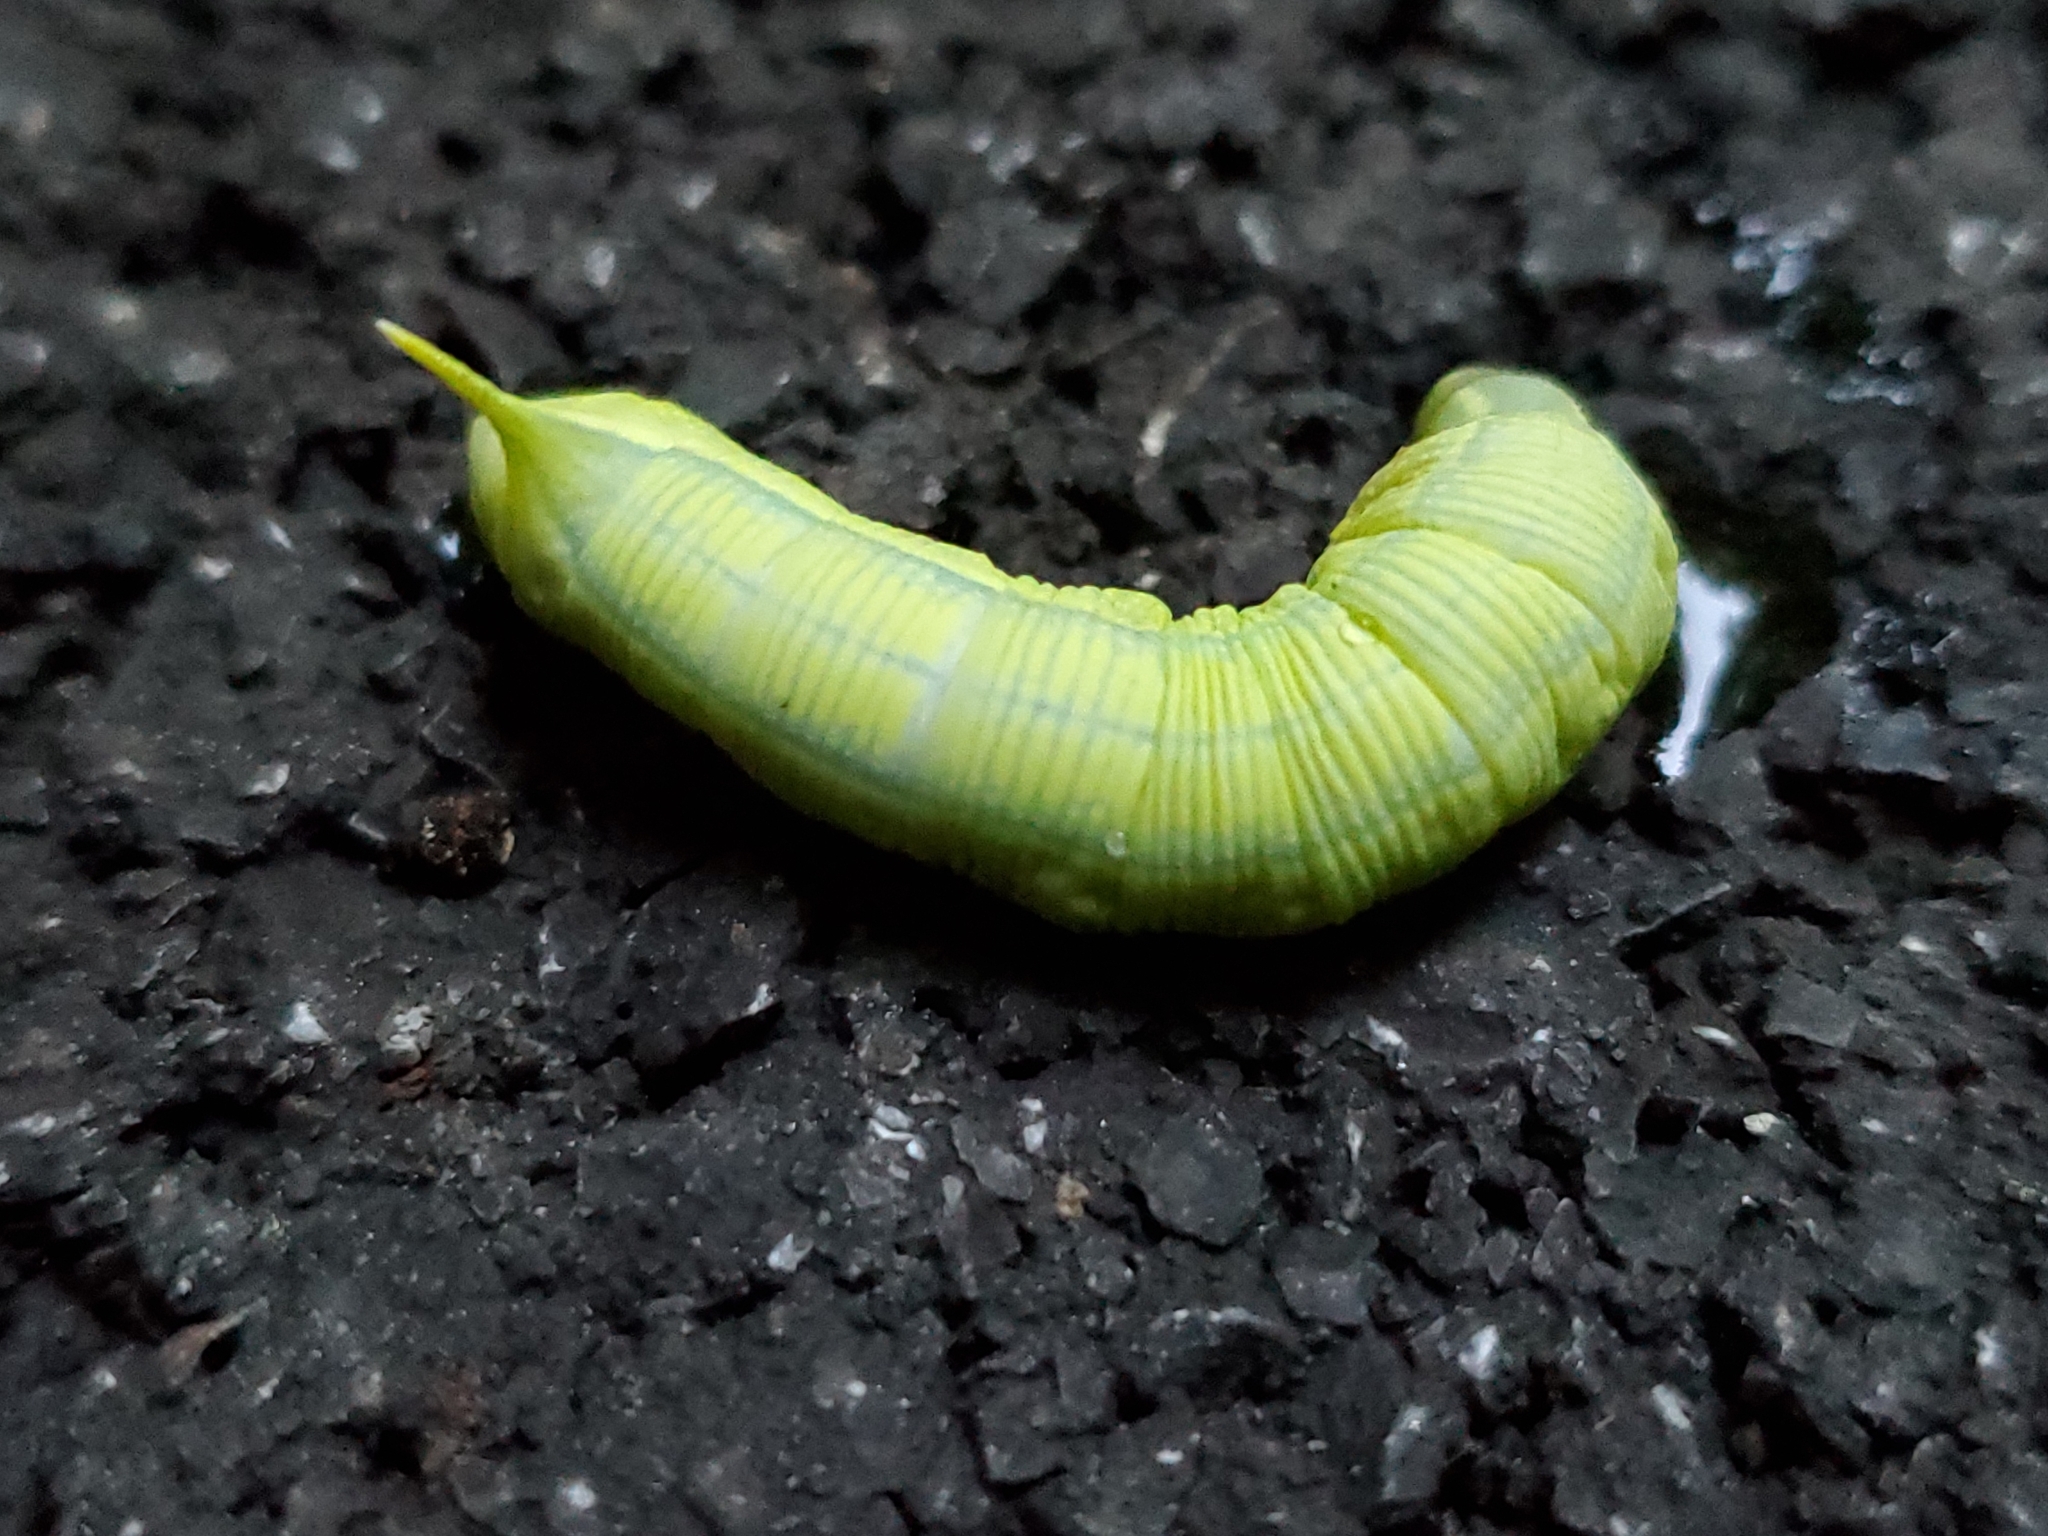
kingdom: Animalia
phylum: Arthropoda
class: Insecta
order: Lepidoptera
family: Sphingidae
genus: Deidamia
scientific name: Deidamia inscriptum
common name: Lettered sphinx
